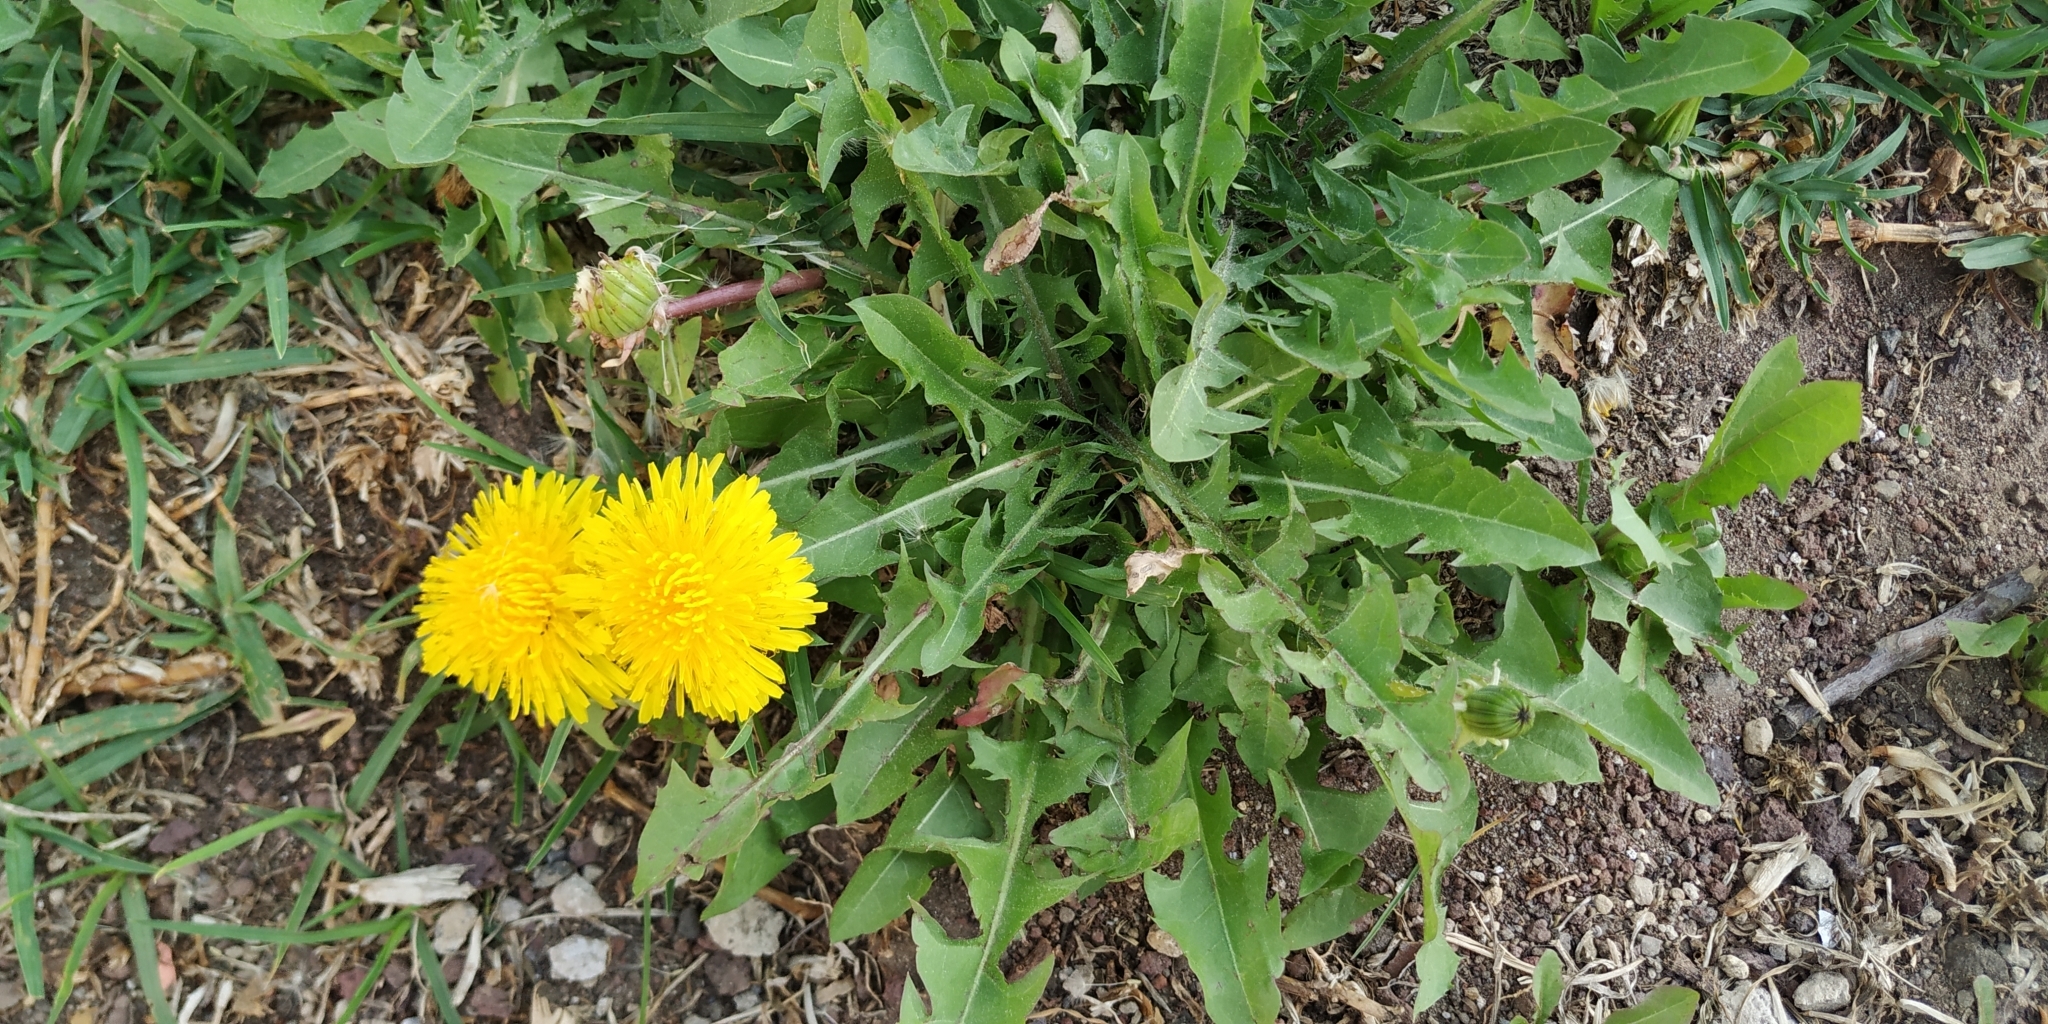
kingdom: Plantae
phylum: Tracheophyta
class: Magnoliopsida
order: Asterales
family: Asteraceae
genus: Taraxacum
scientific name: Taraxacum officinale
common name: Common dandelion
